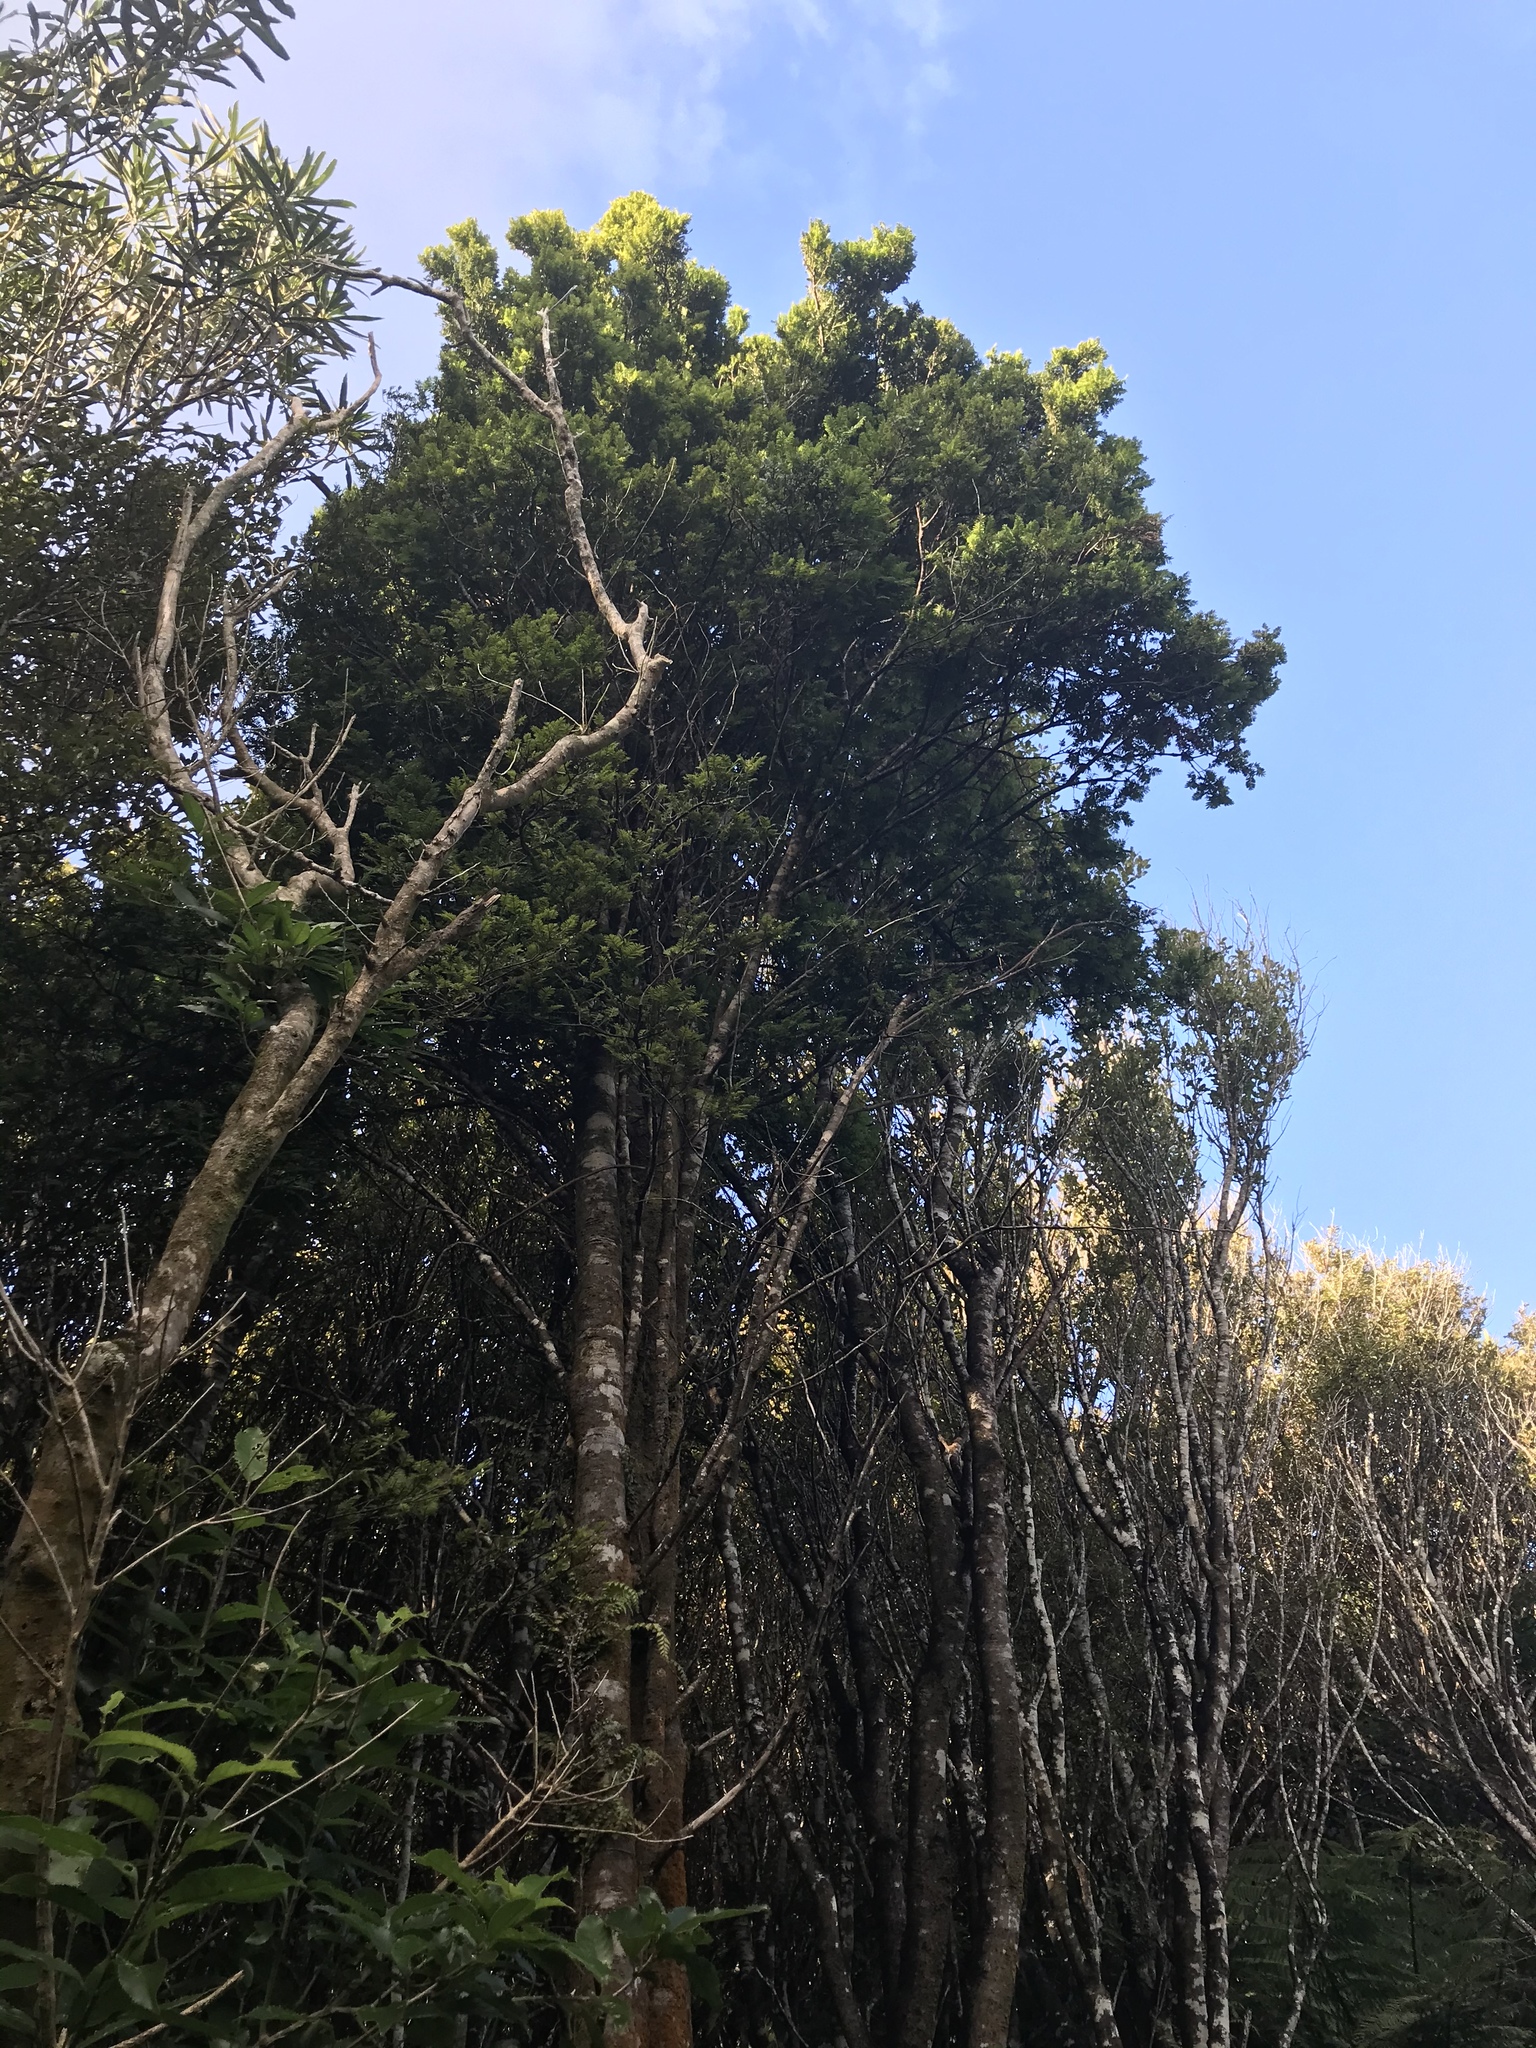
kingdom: Plantae
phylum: Tracheophyta
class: Pinopsida
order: Pinales
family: Podocarpaceae
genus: Prumnopitys
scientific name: Prumnopitys ferruginea
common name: Brown pine
